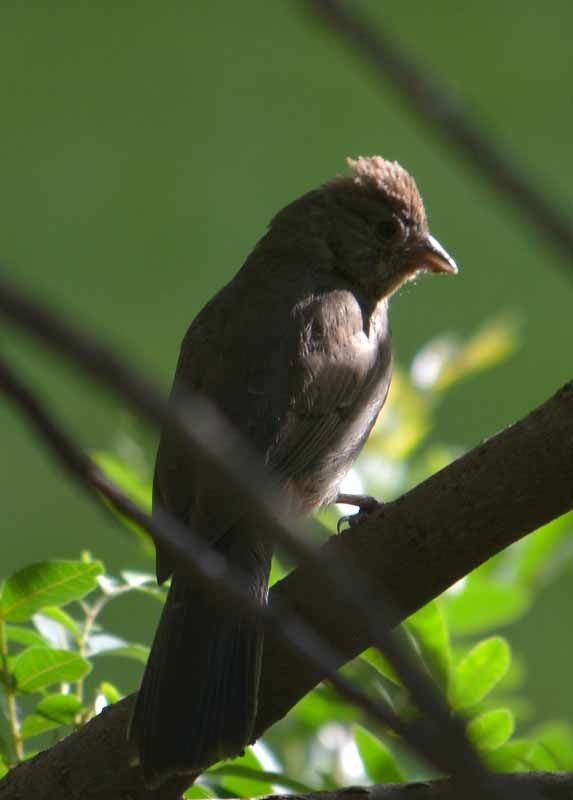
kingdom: Animalia
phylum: Chordata
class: Aves
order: Passeriformes
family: Passerellidae
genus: Melozone
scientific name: Melozone fusca
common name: Canyon towhee
